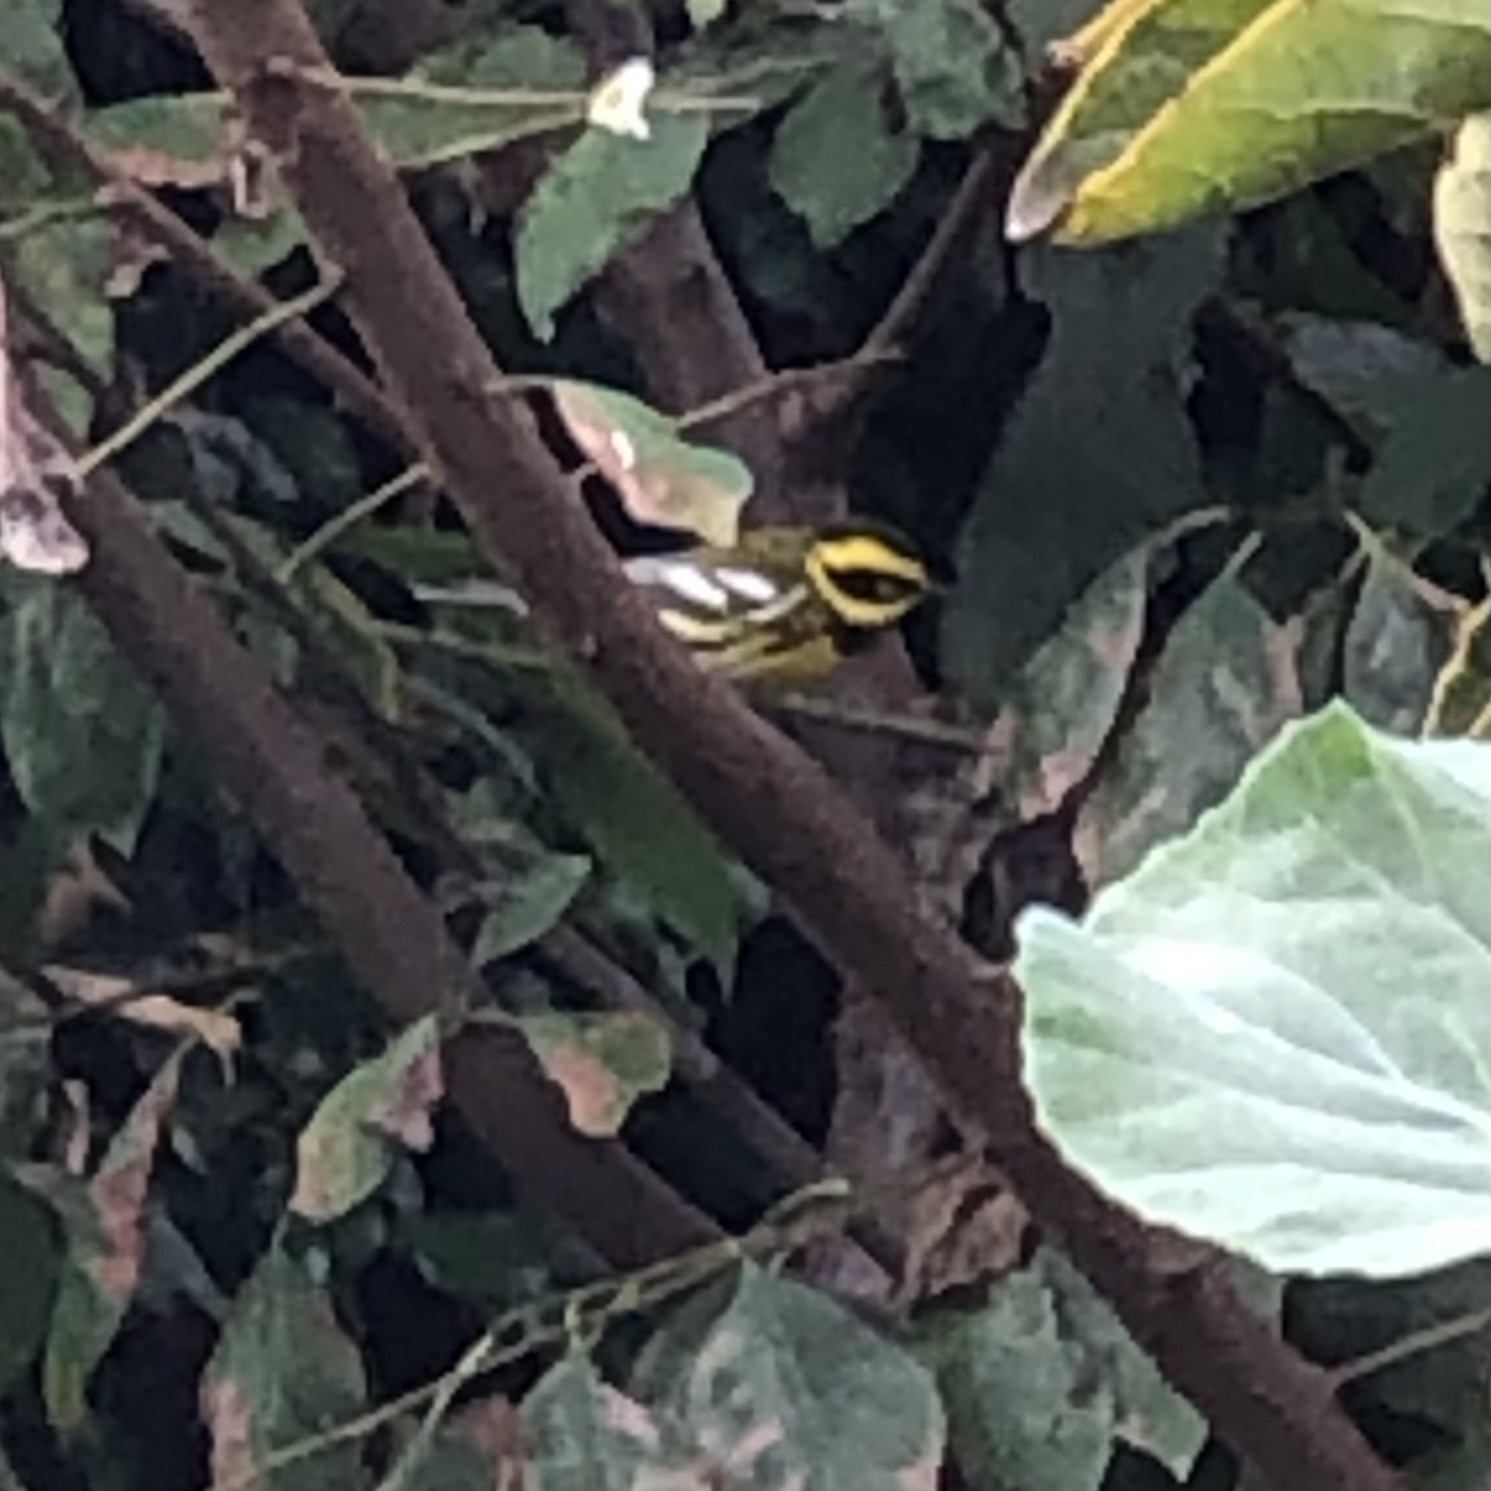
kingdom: Animalia
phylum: Chordata
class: Aves
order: Passeriformes
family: Parulidae
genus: Setophaga
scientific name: Setophaga townsendi
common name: Townsend's warbler
